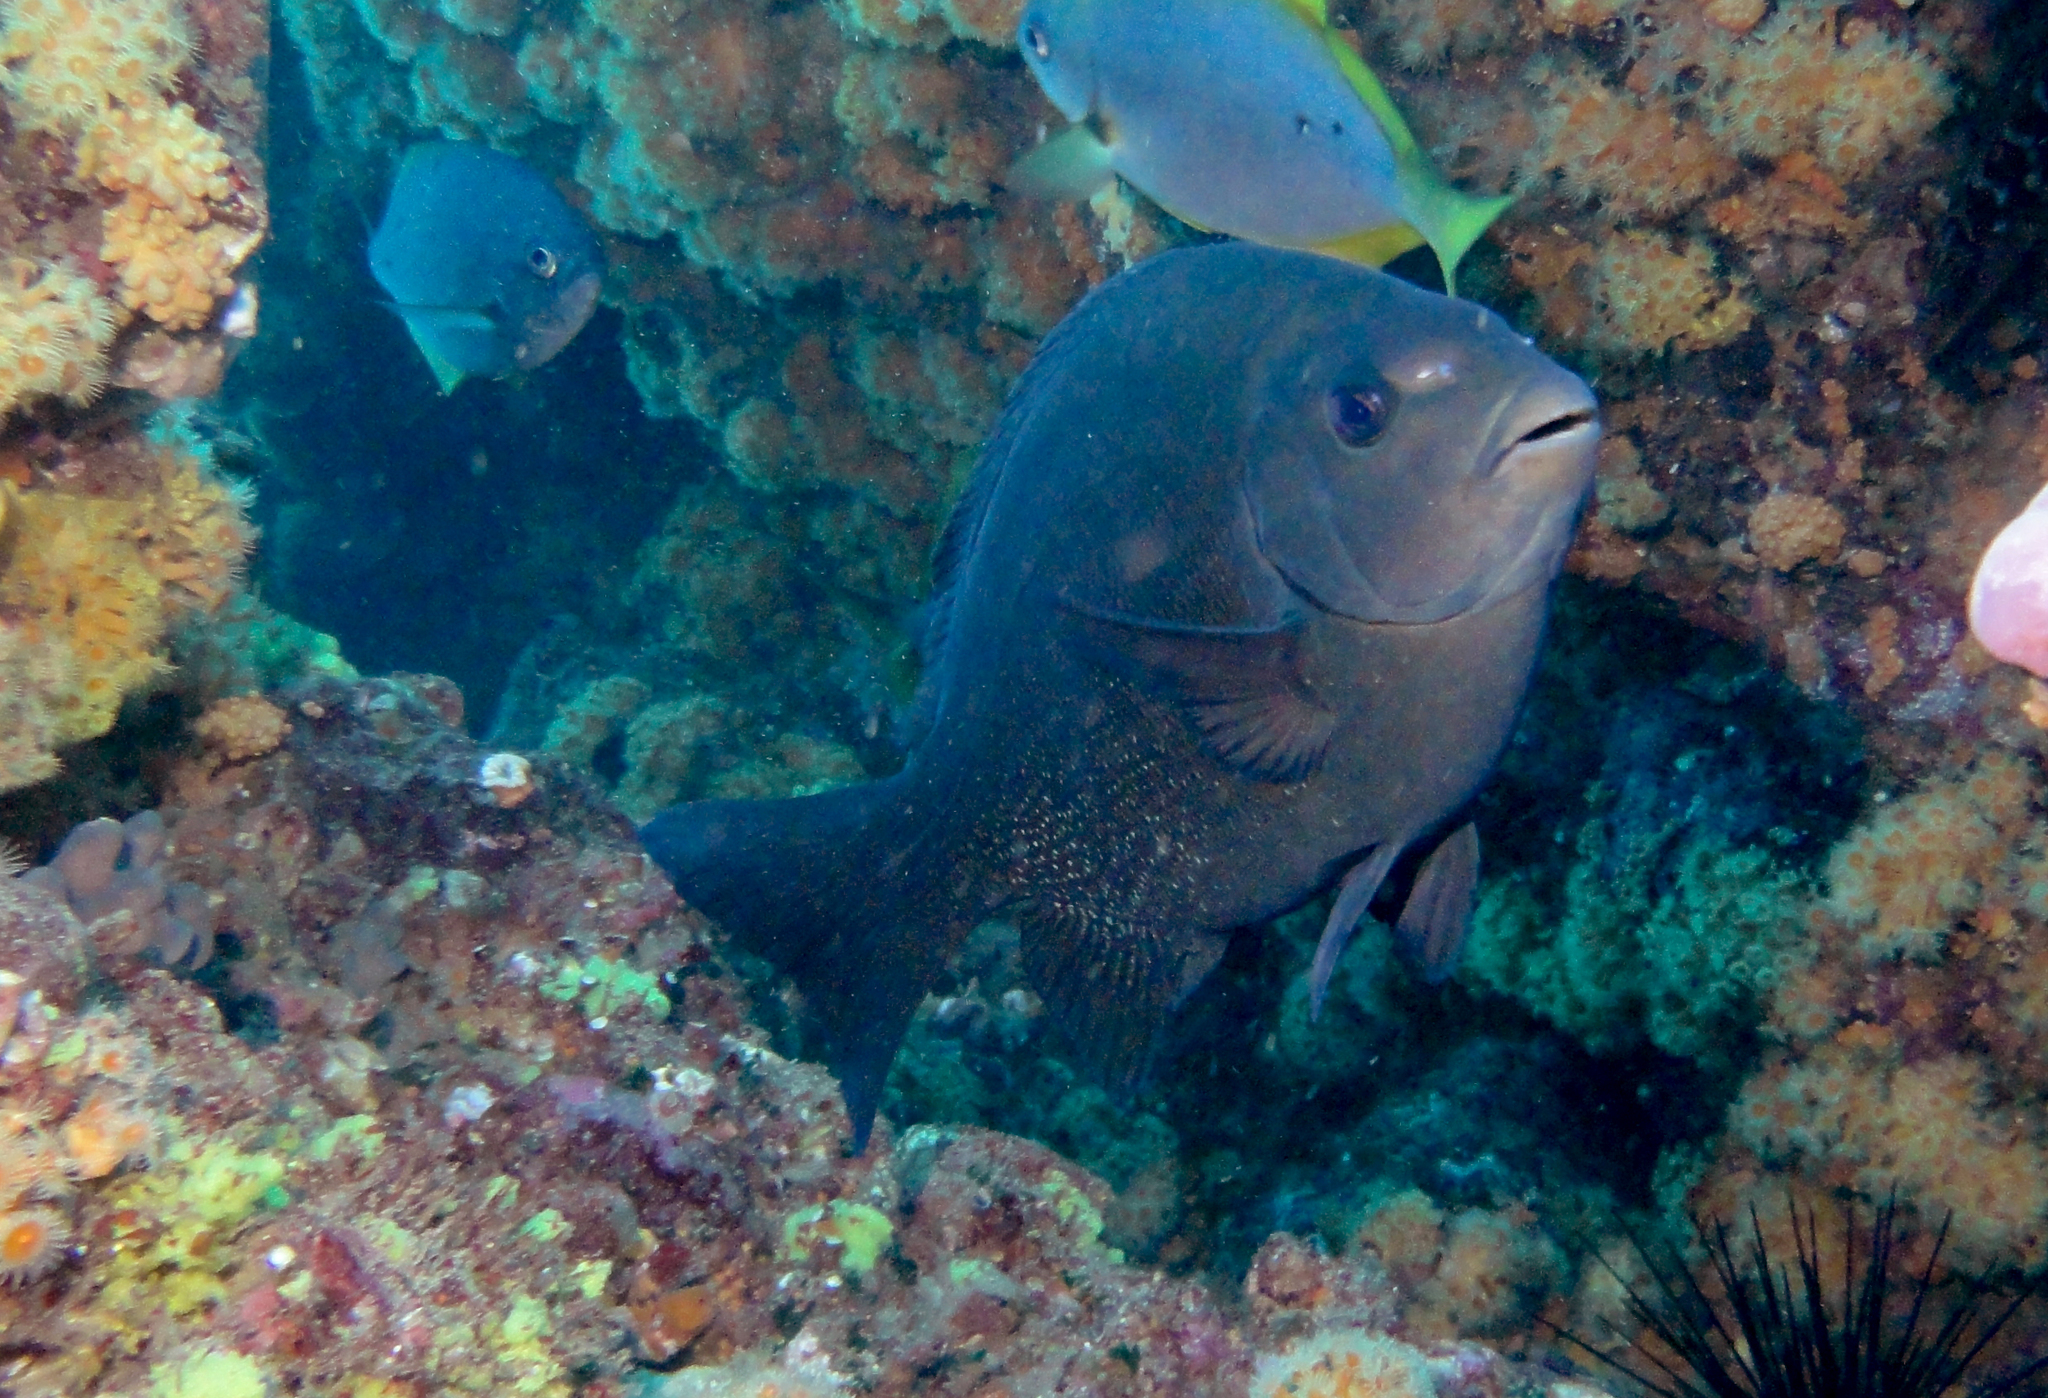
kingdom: Animalia
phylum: Chordata
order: Perciformes
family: Kyphosidae
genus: Girella
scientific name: Girella albostriata
